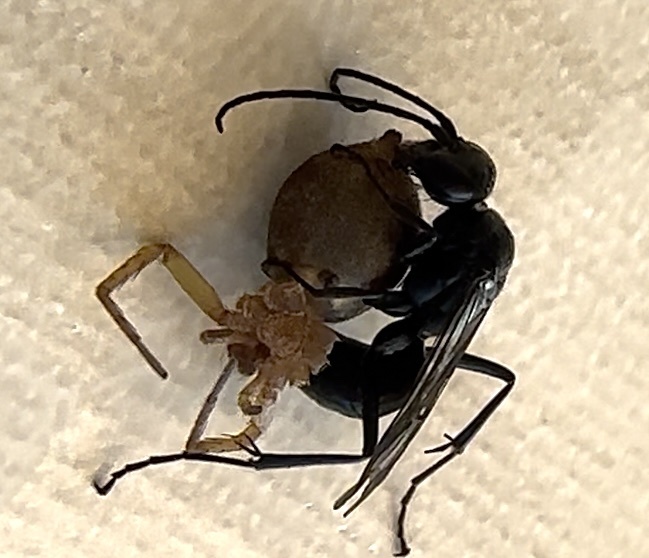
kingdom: Animalia
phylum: Arthropoda
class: Insecta
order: Hymenoptera
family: Pompilidae
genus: Auplopus
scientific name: Auplopus carbonarius
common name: Spider wasp
